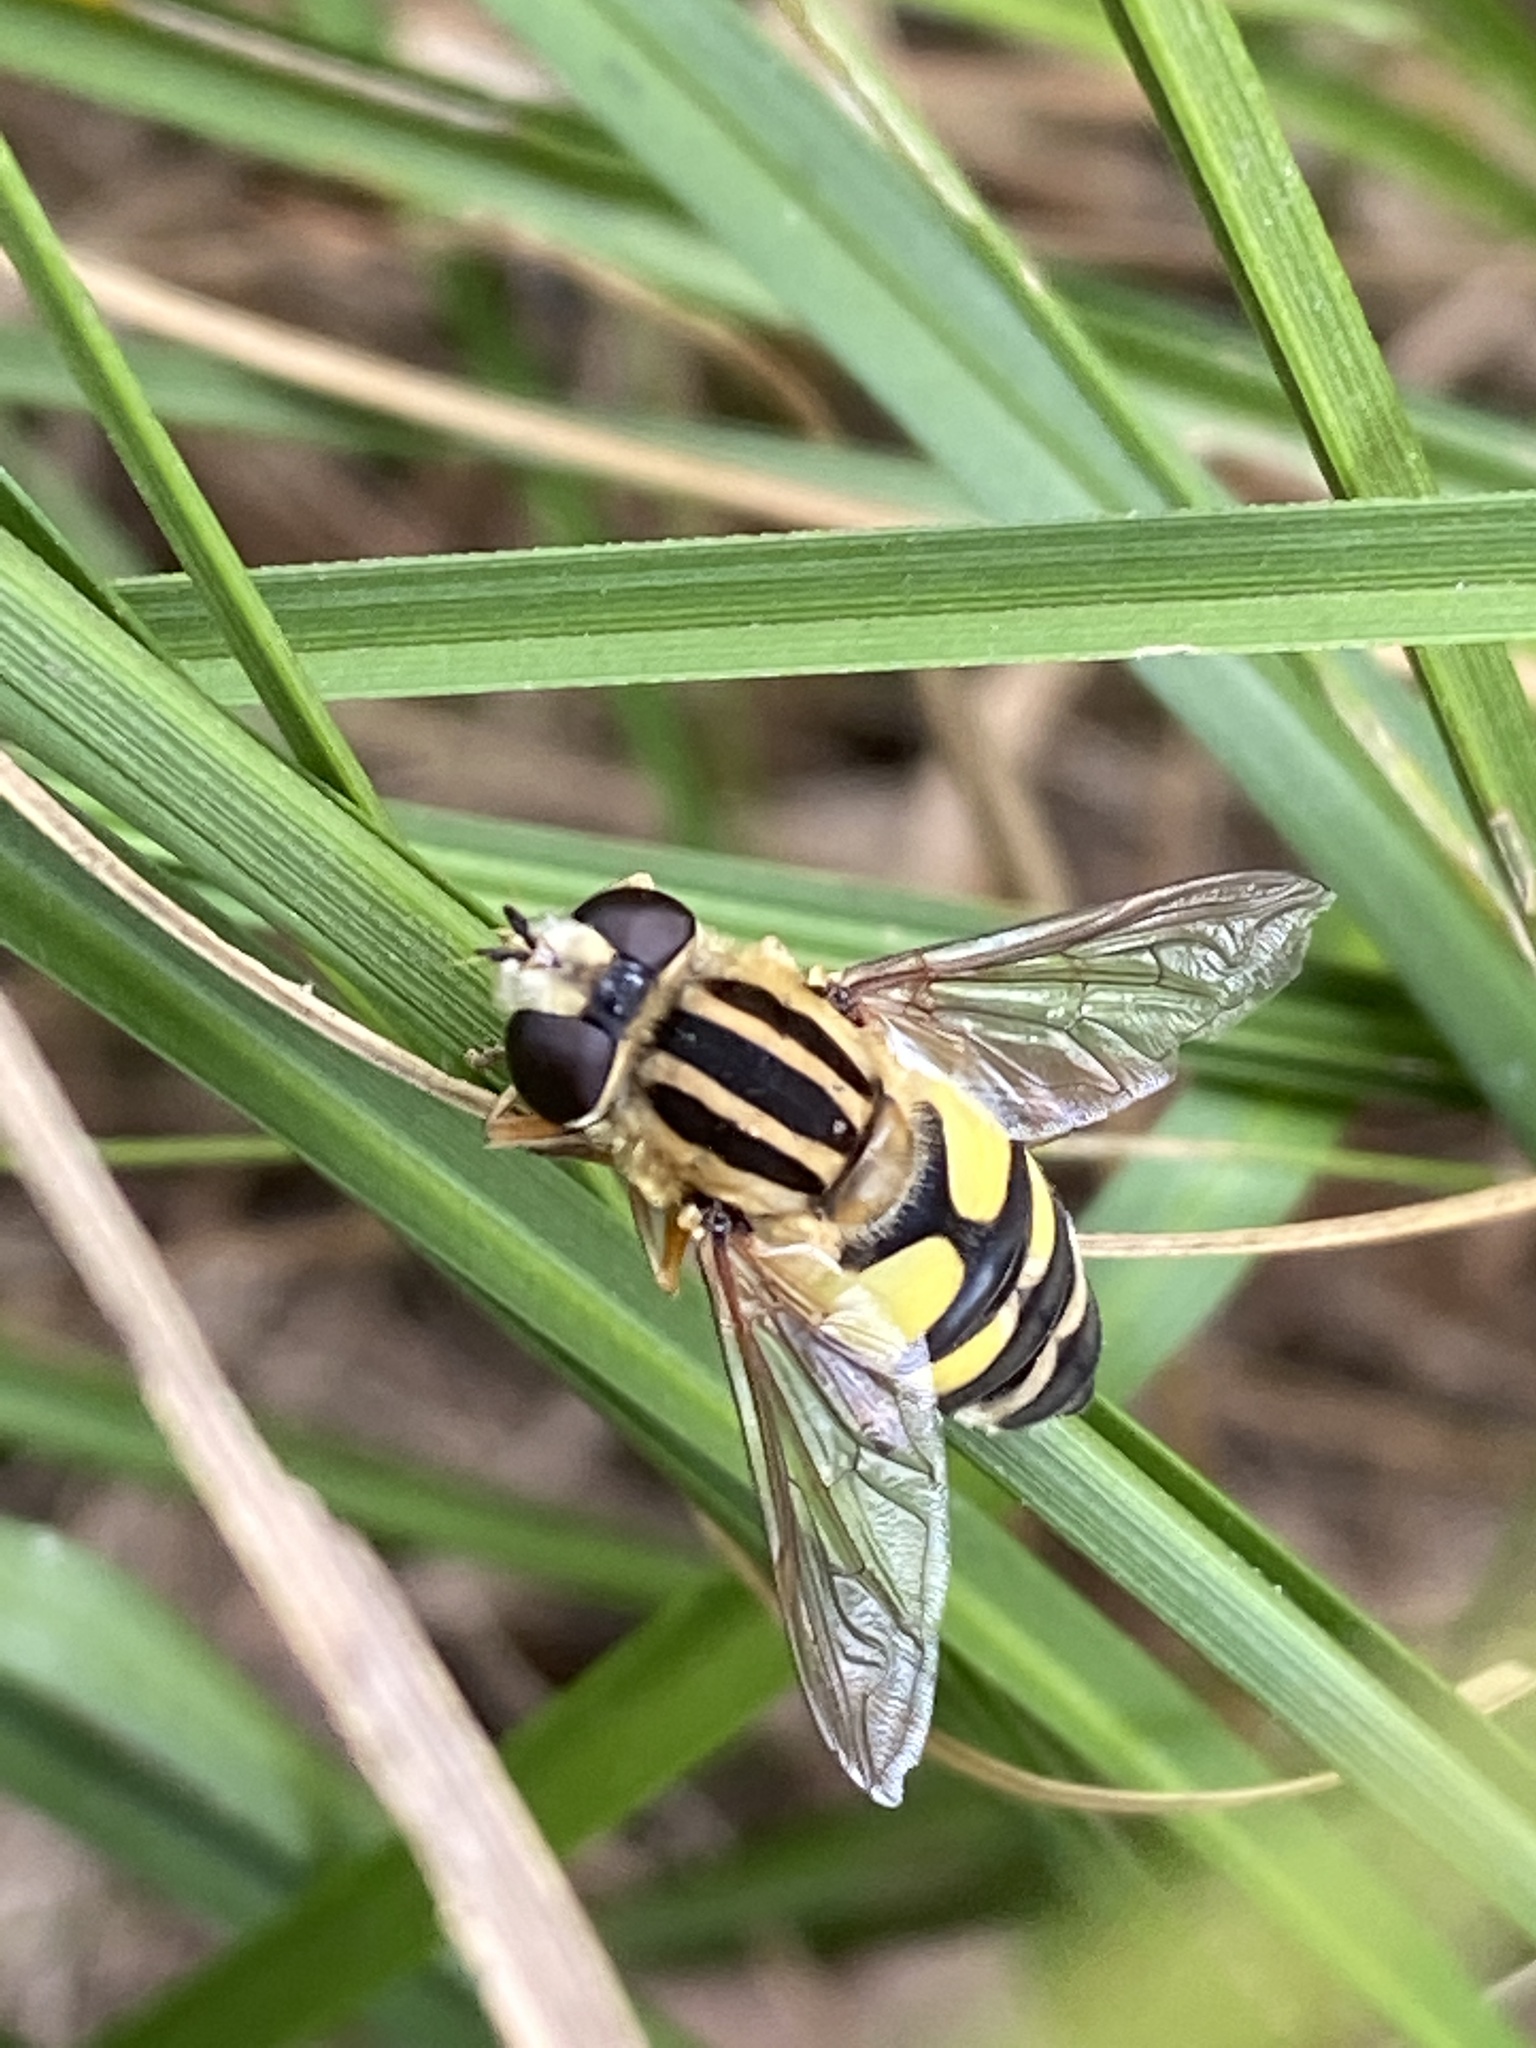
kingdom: Animalia
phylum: Arthropoda
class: Insecta
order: Diptera
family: Syrphidae
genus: Helophilus
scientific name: Helophilus trivittatus
